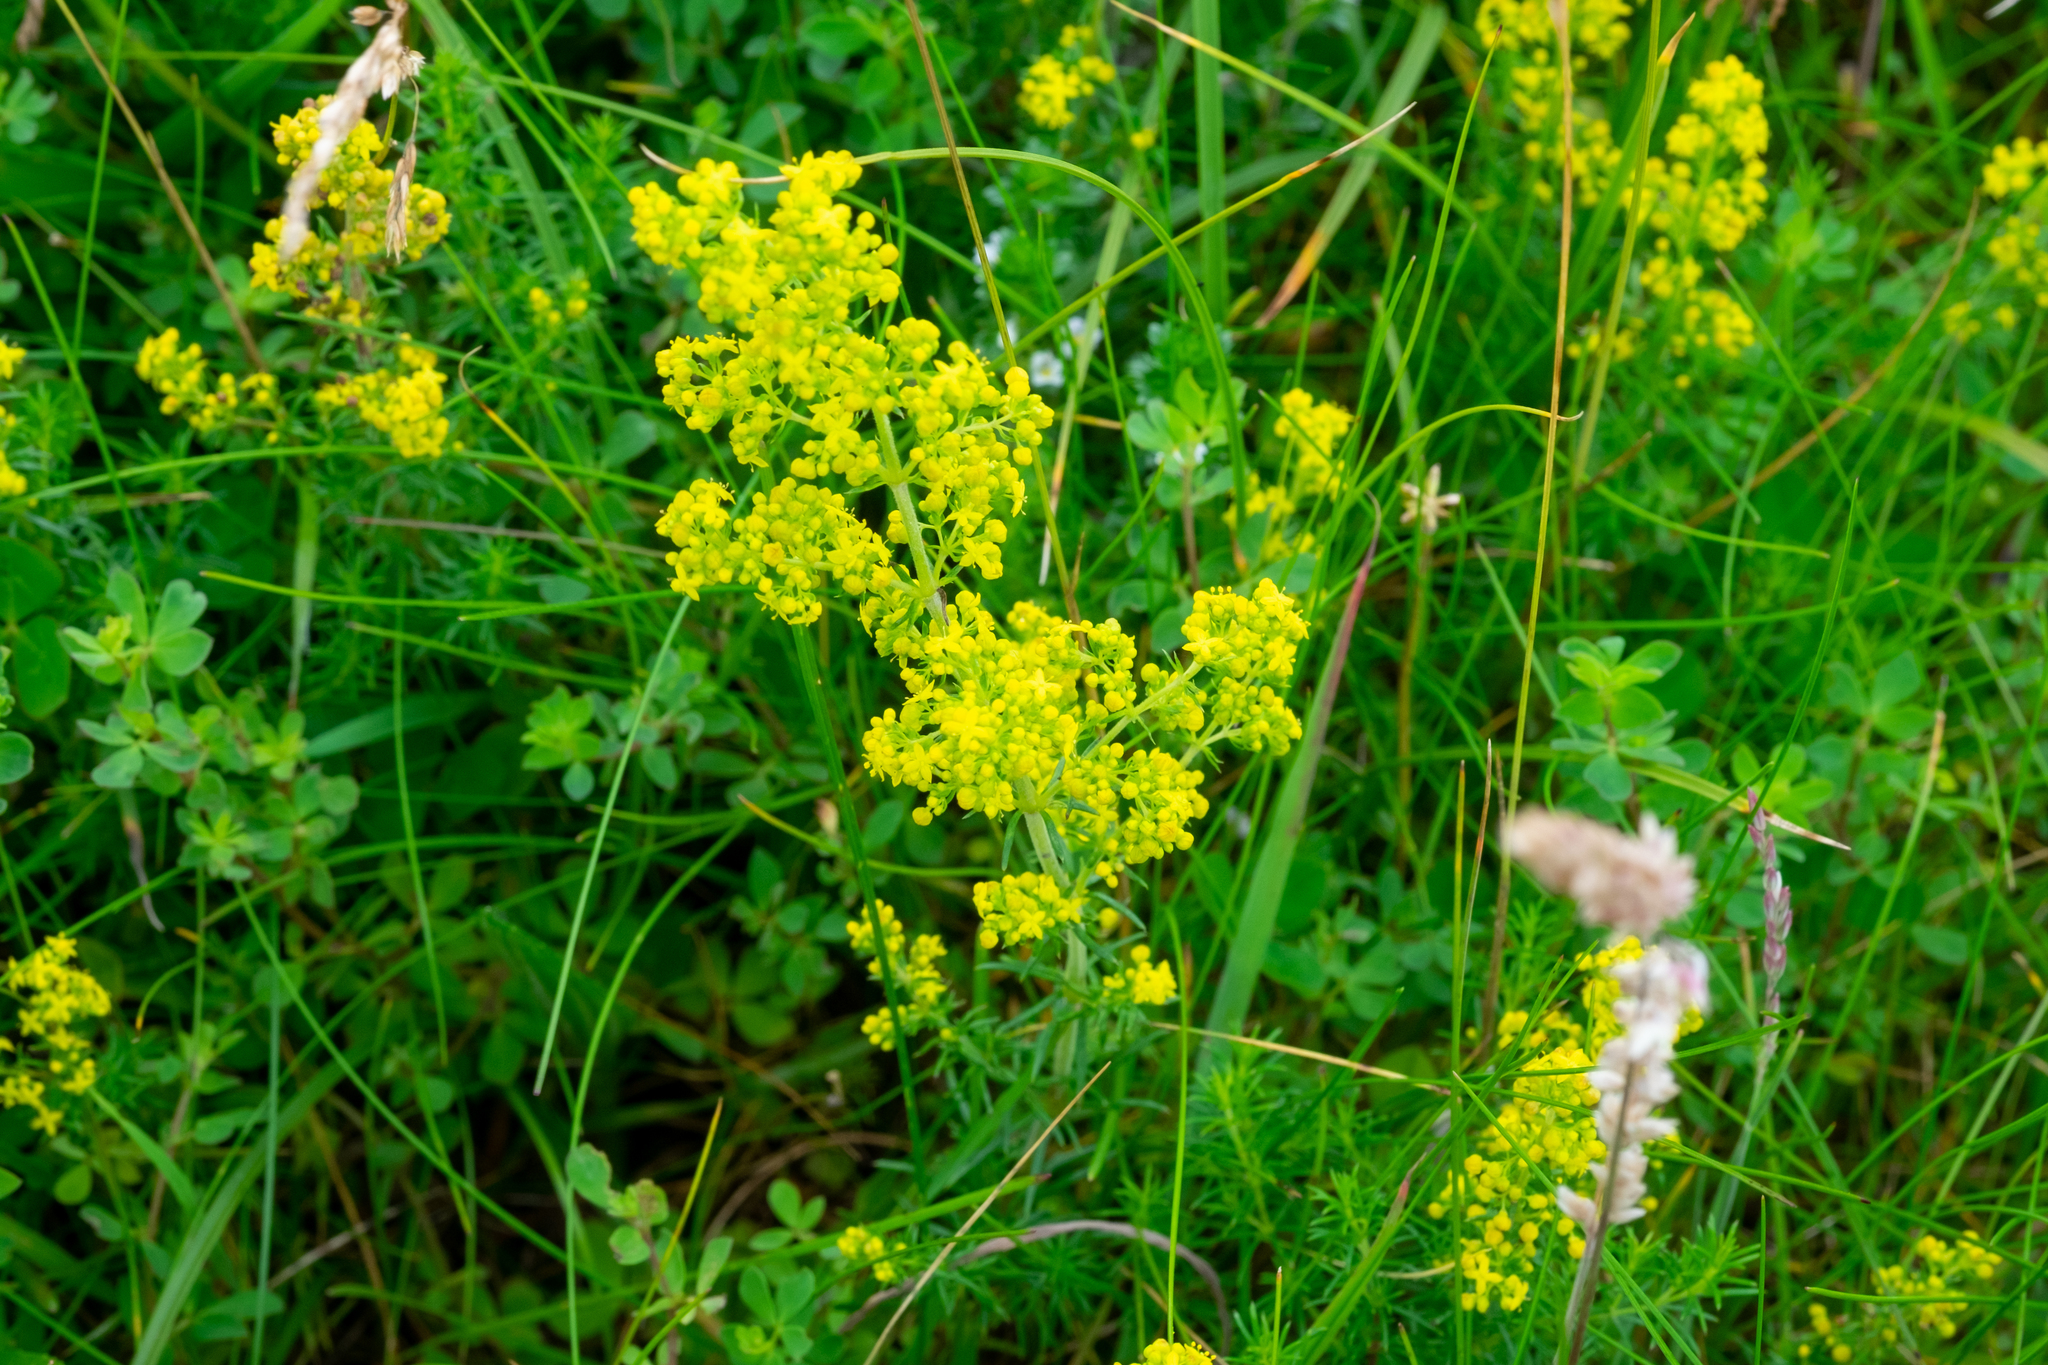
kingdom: Plantae
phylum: Tracheophyta
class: Magnoliopsida
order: Gentianales
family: Rubiaceae
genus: Galium
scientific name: Galium verum
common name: Lady's bedstraw
